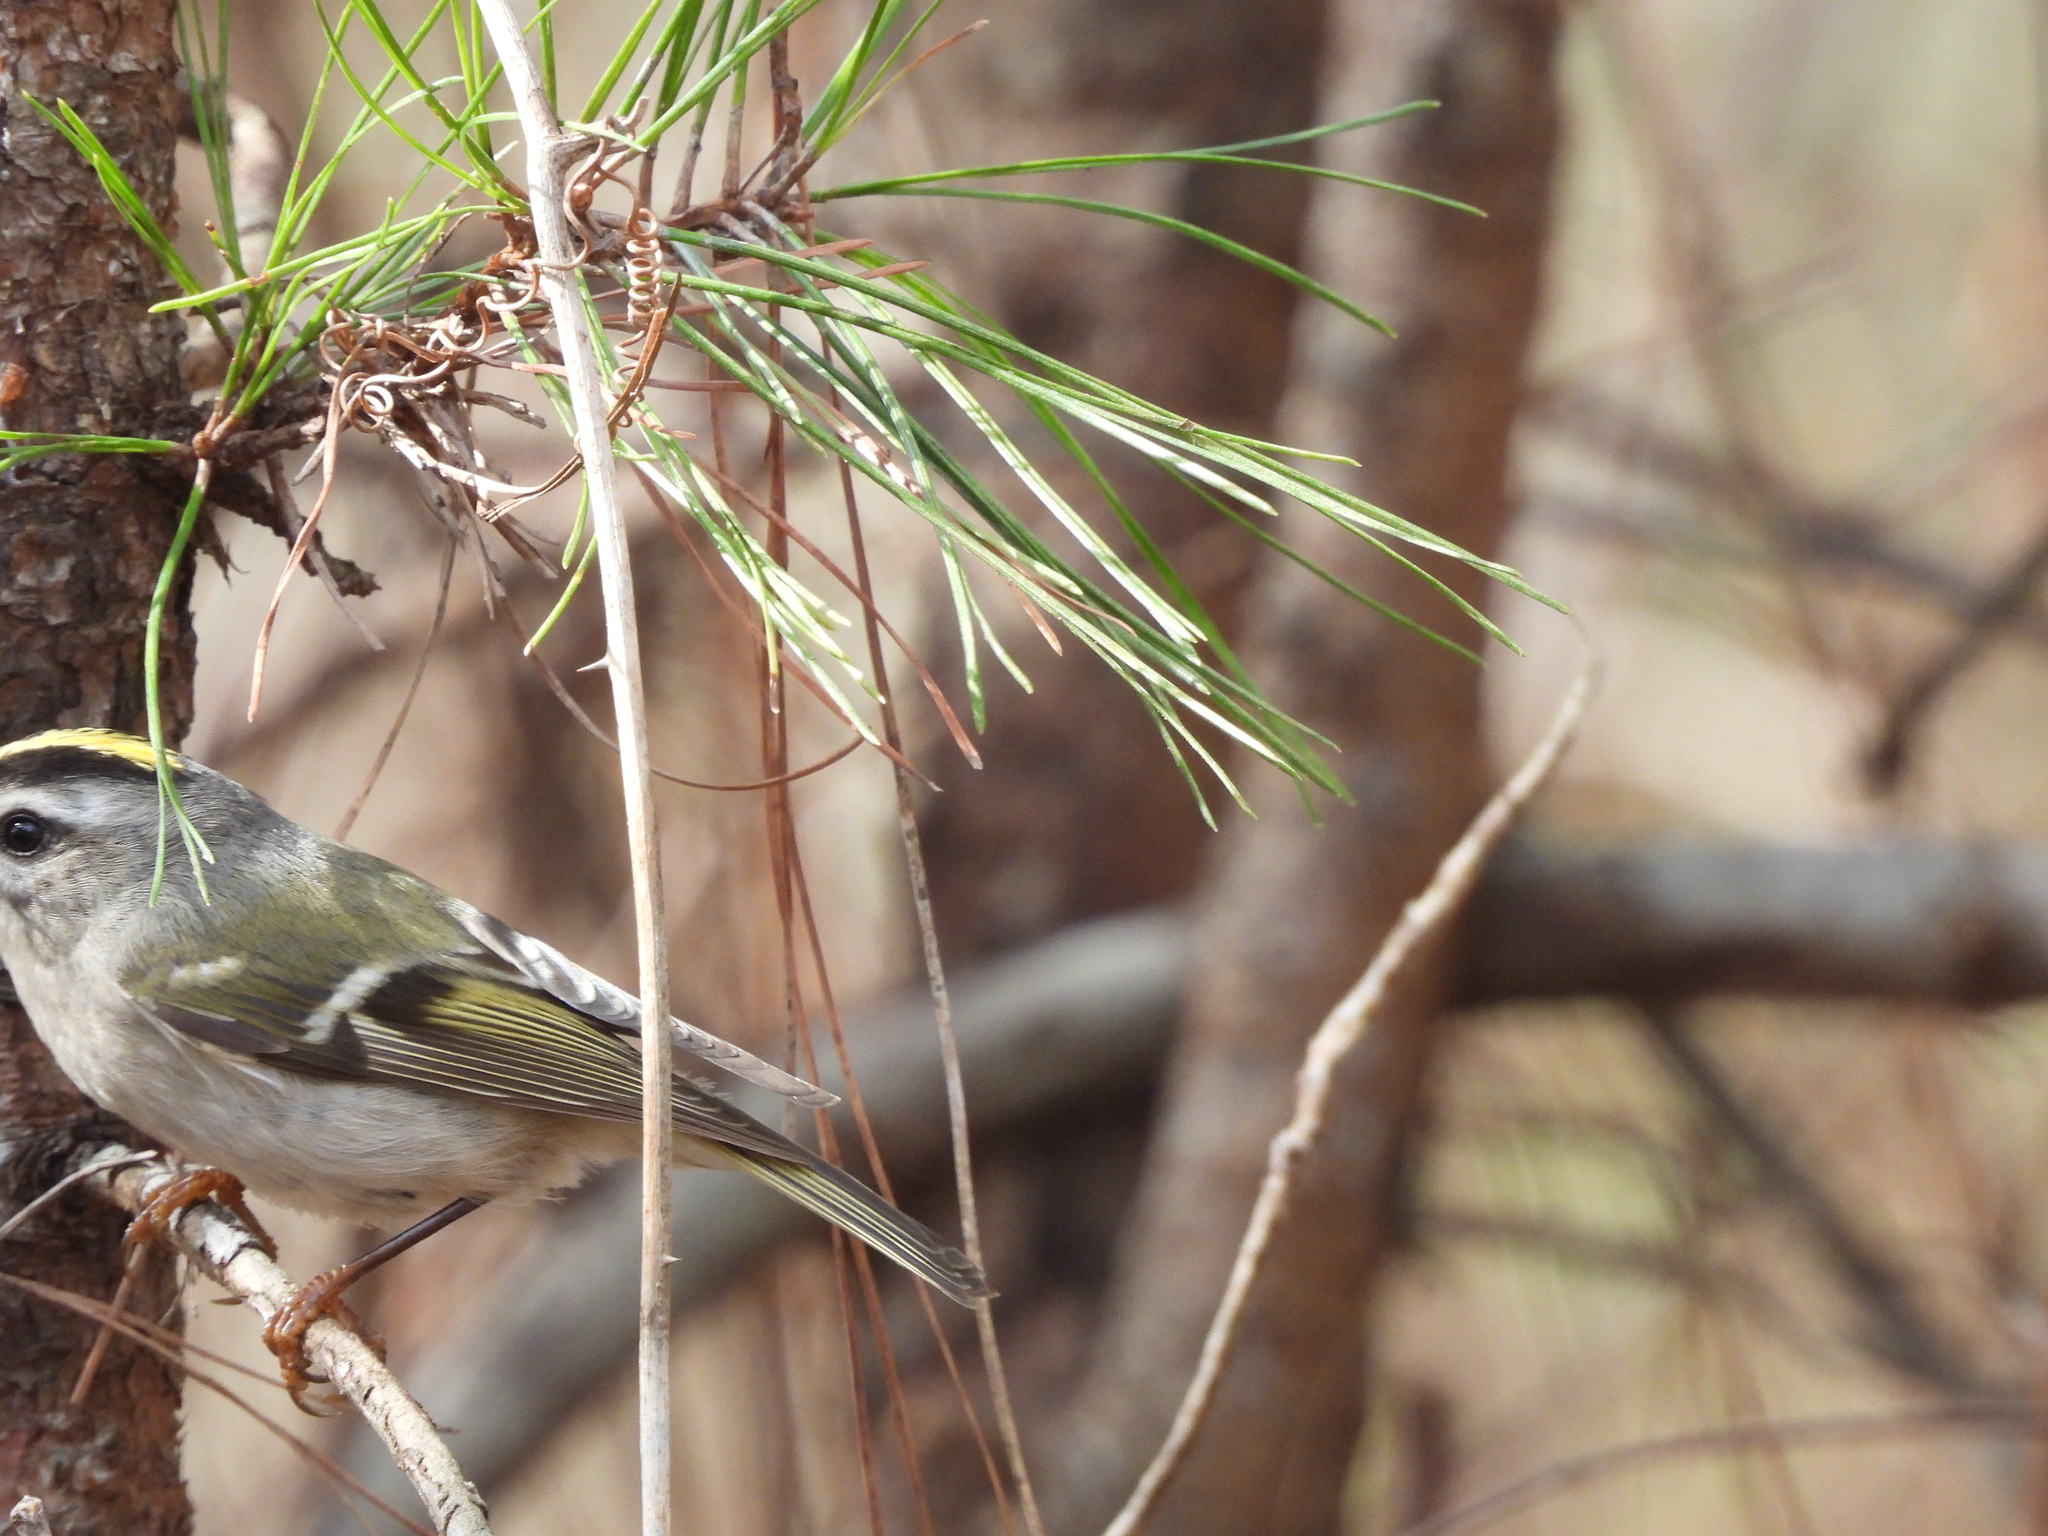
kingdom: Animalia
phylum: Chordata
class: Aves
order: Passeriformes
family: Regulidae
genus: Regulus
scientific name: Regulus satrapa
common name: Golden-crowned kinglet
